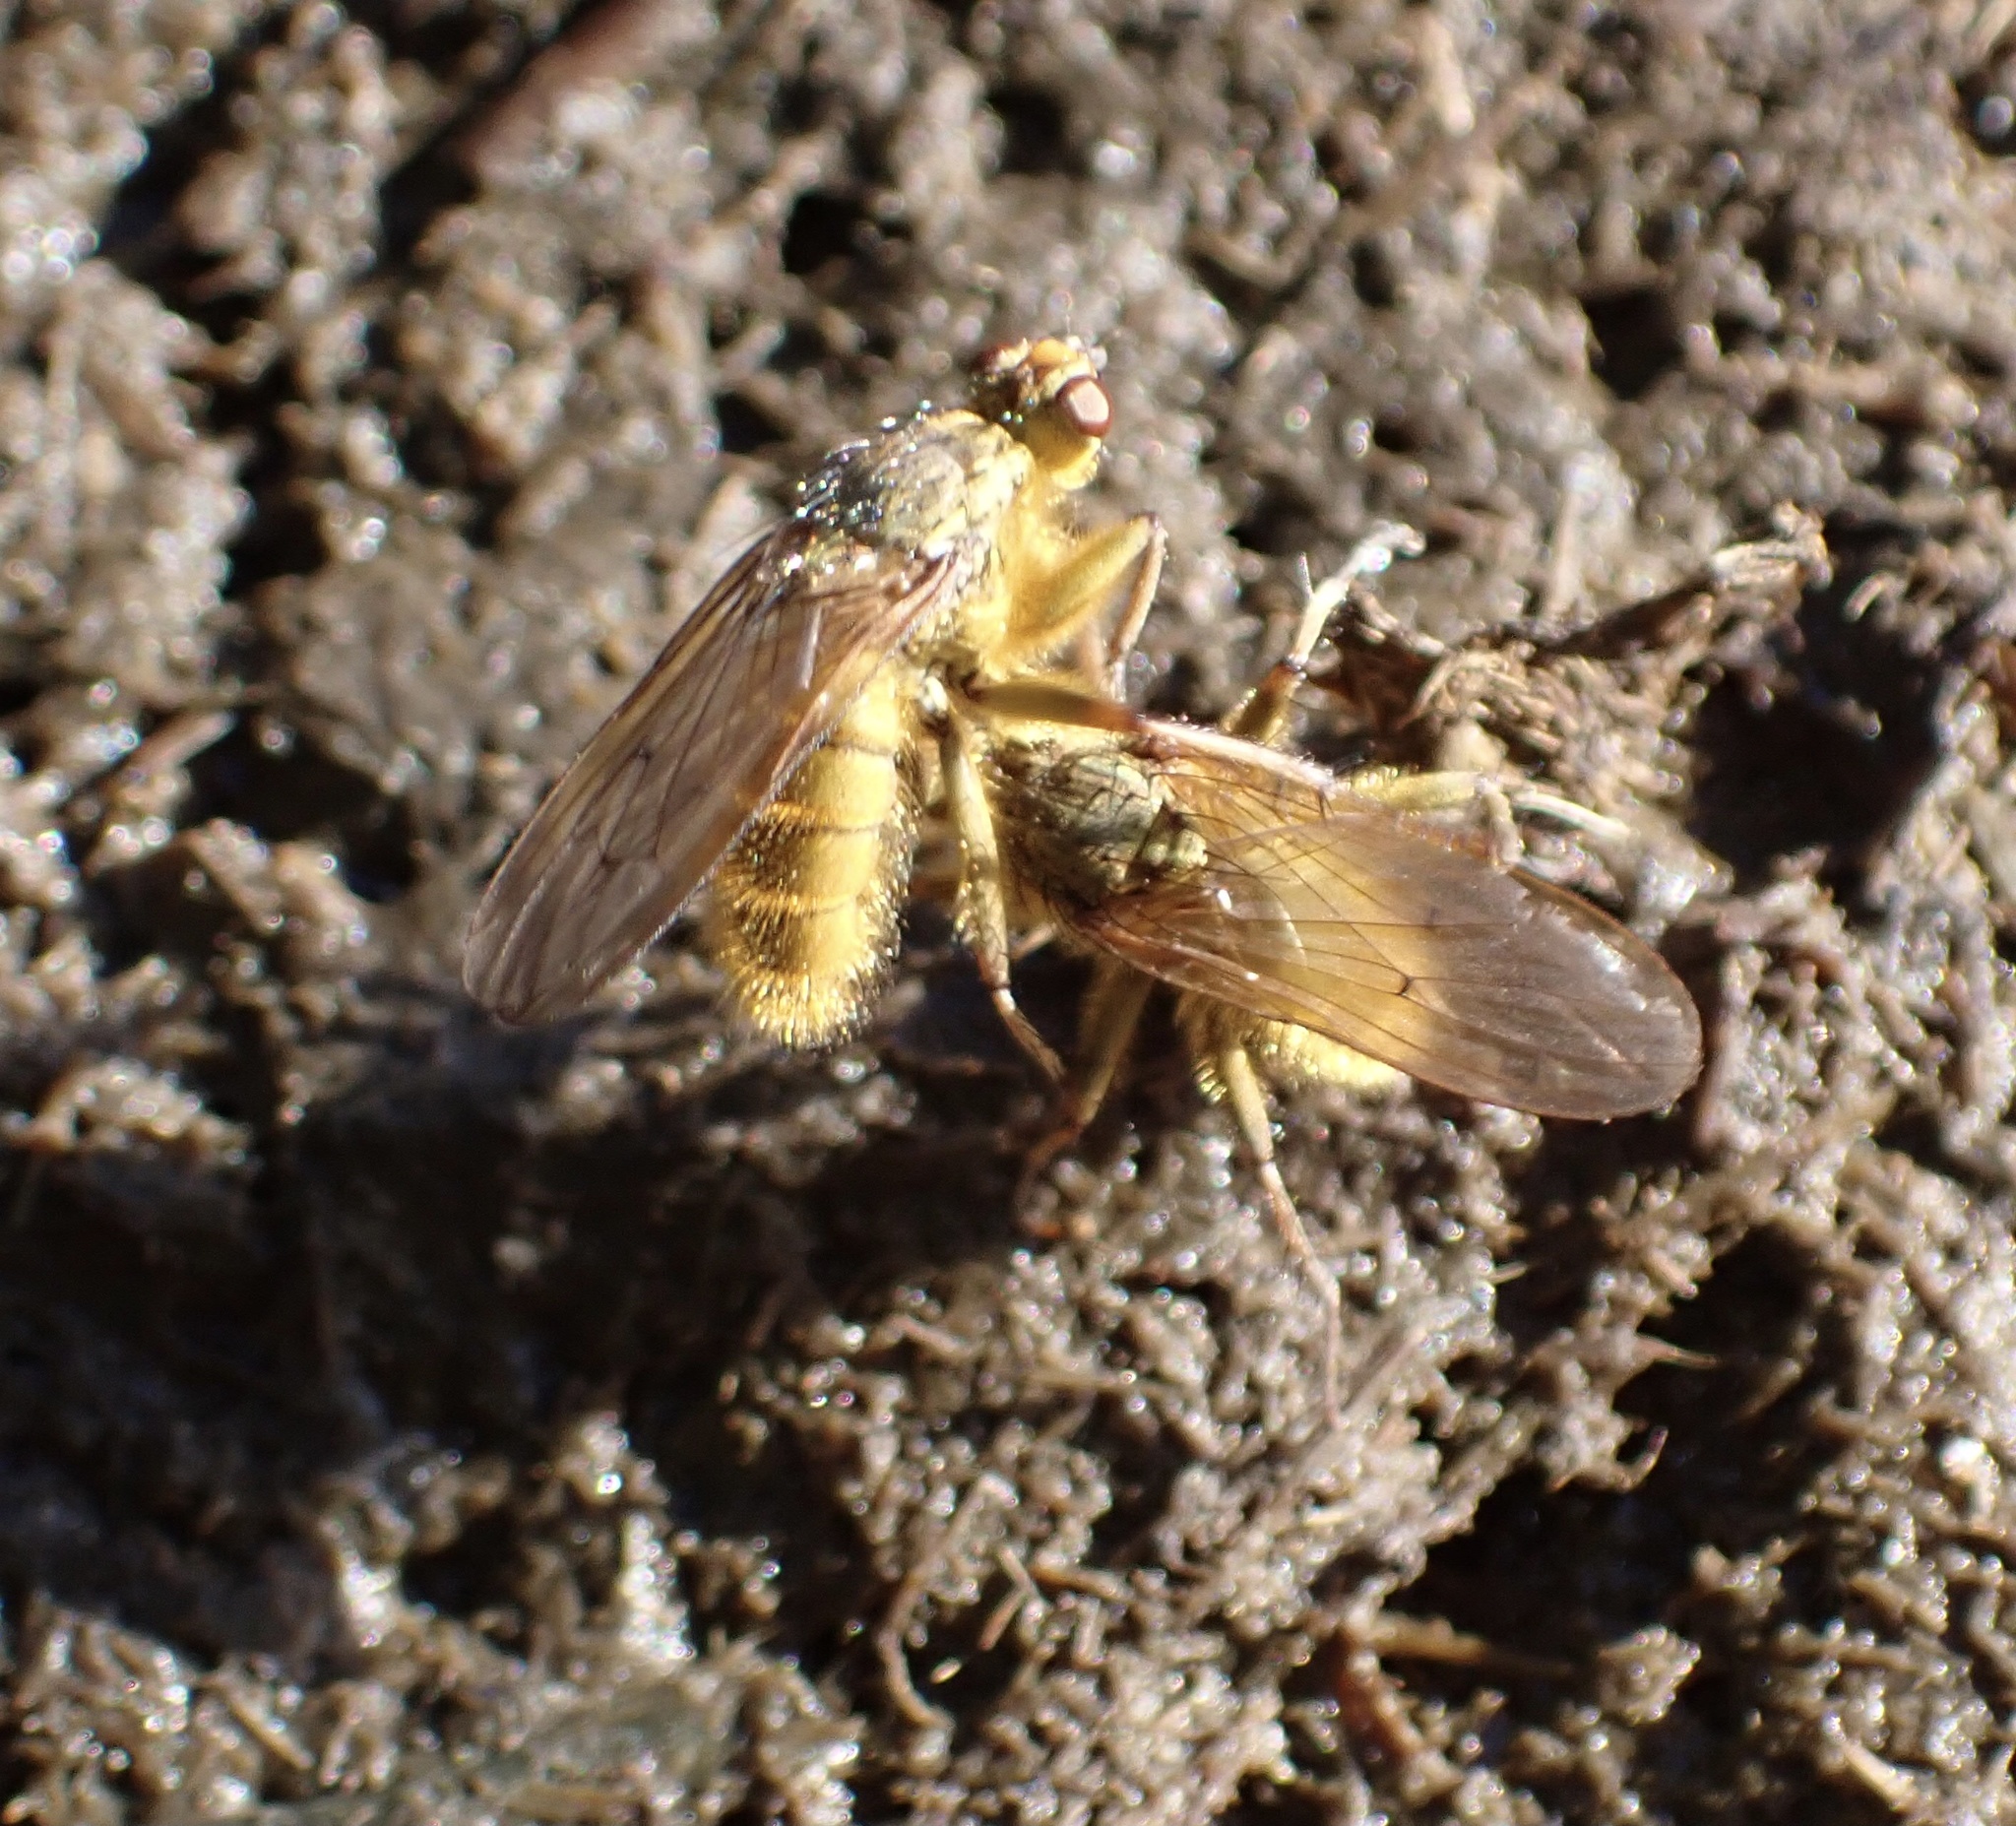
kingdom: Animalia
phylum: Arthropoda
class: Insecta
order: Diptera
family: Scathophagidae
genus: Scathophaga
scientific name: Scathophaga stercoraria
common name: Yellow dung fly
